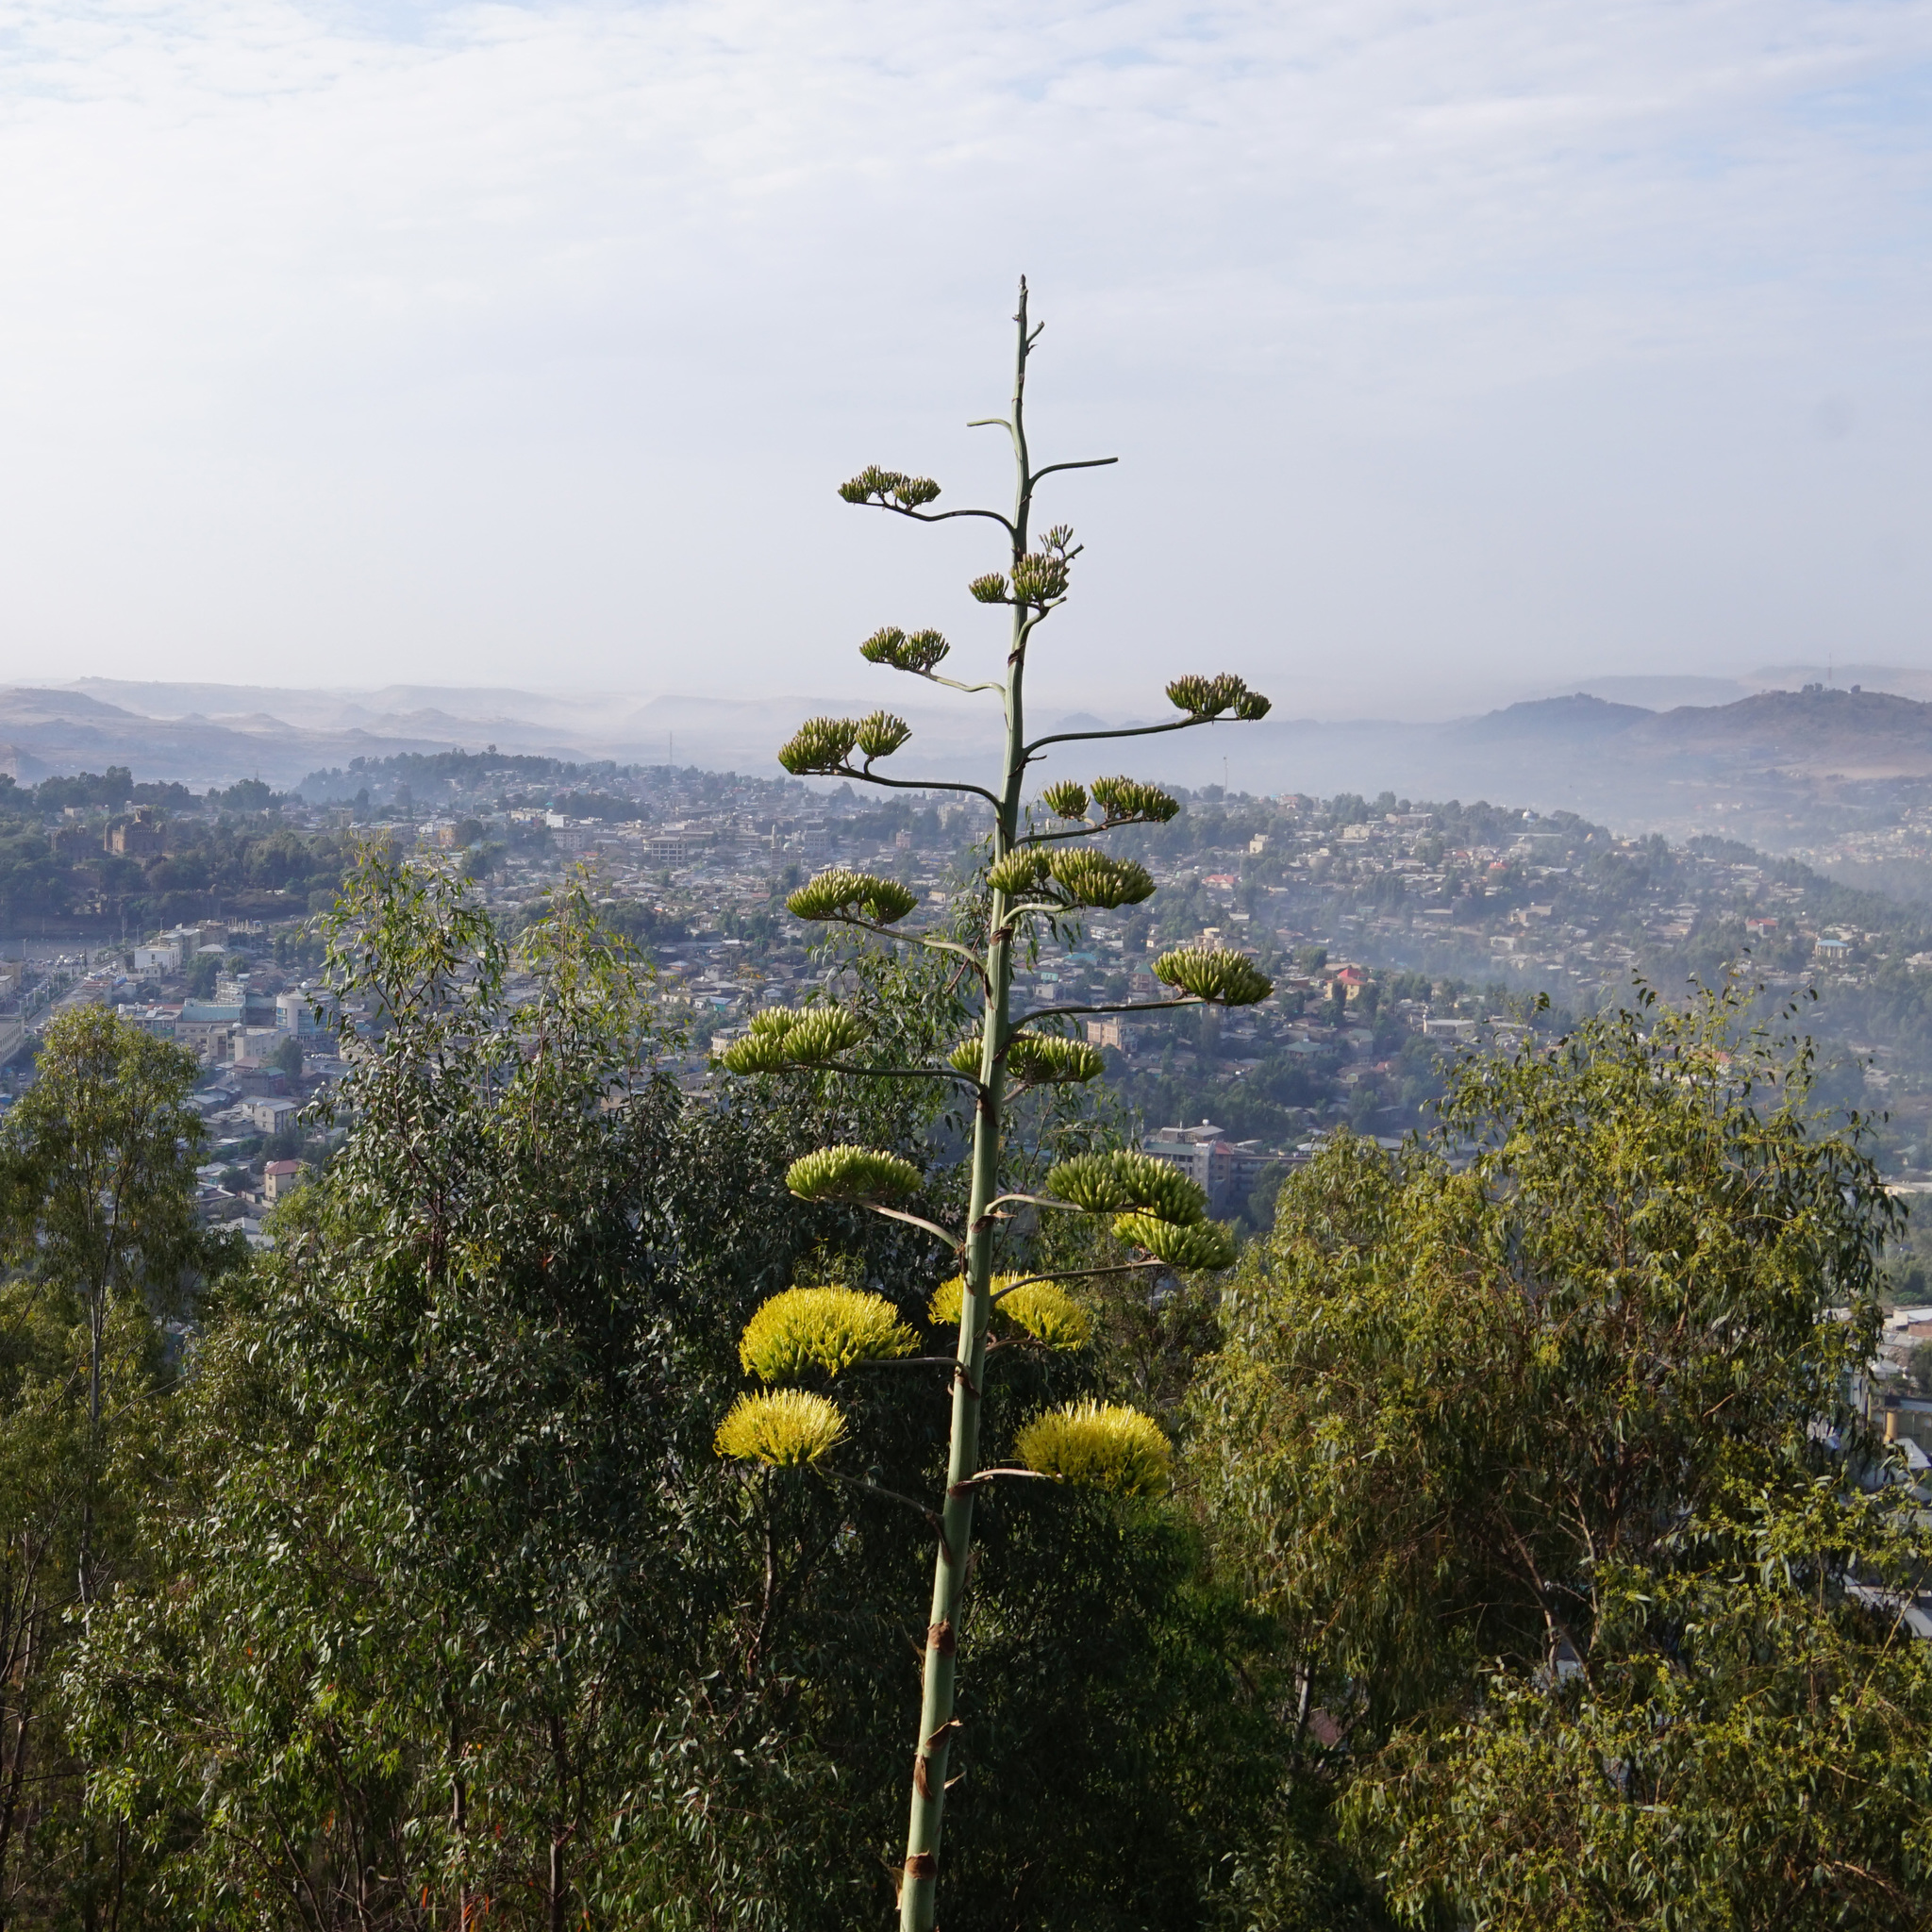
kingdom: Plantae
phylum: Tracheophyta
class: Liliopsida
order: Asparagales
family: Asparagaceae
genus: Agave
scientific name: Agave americana
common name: Centuryplant
